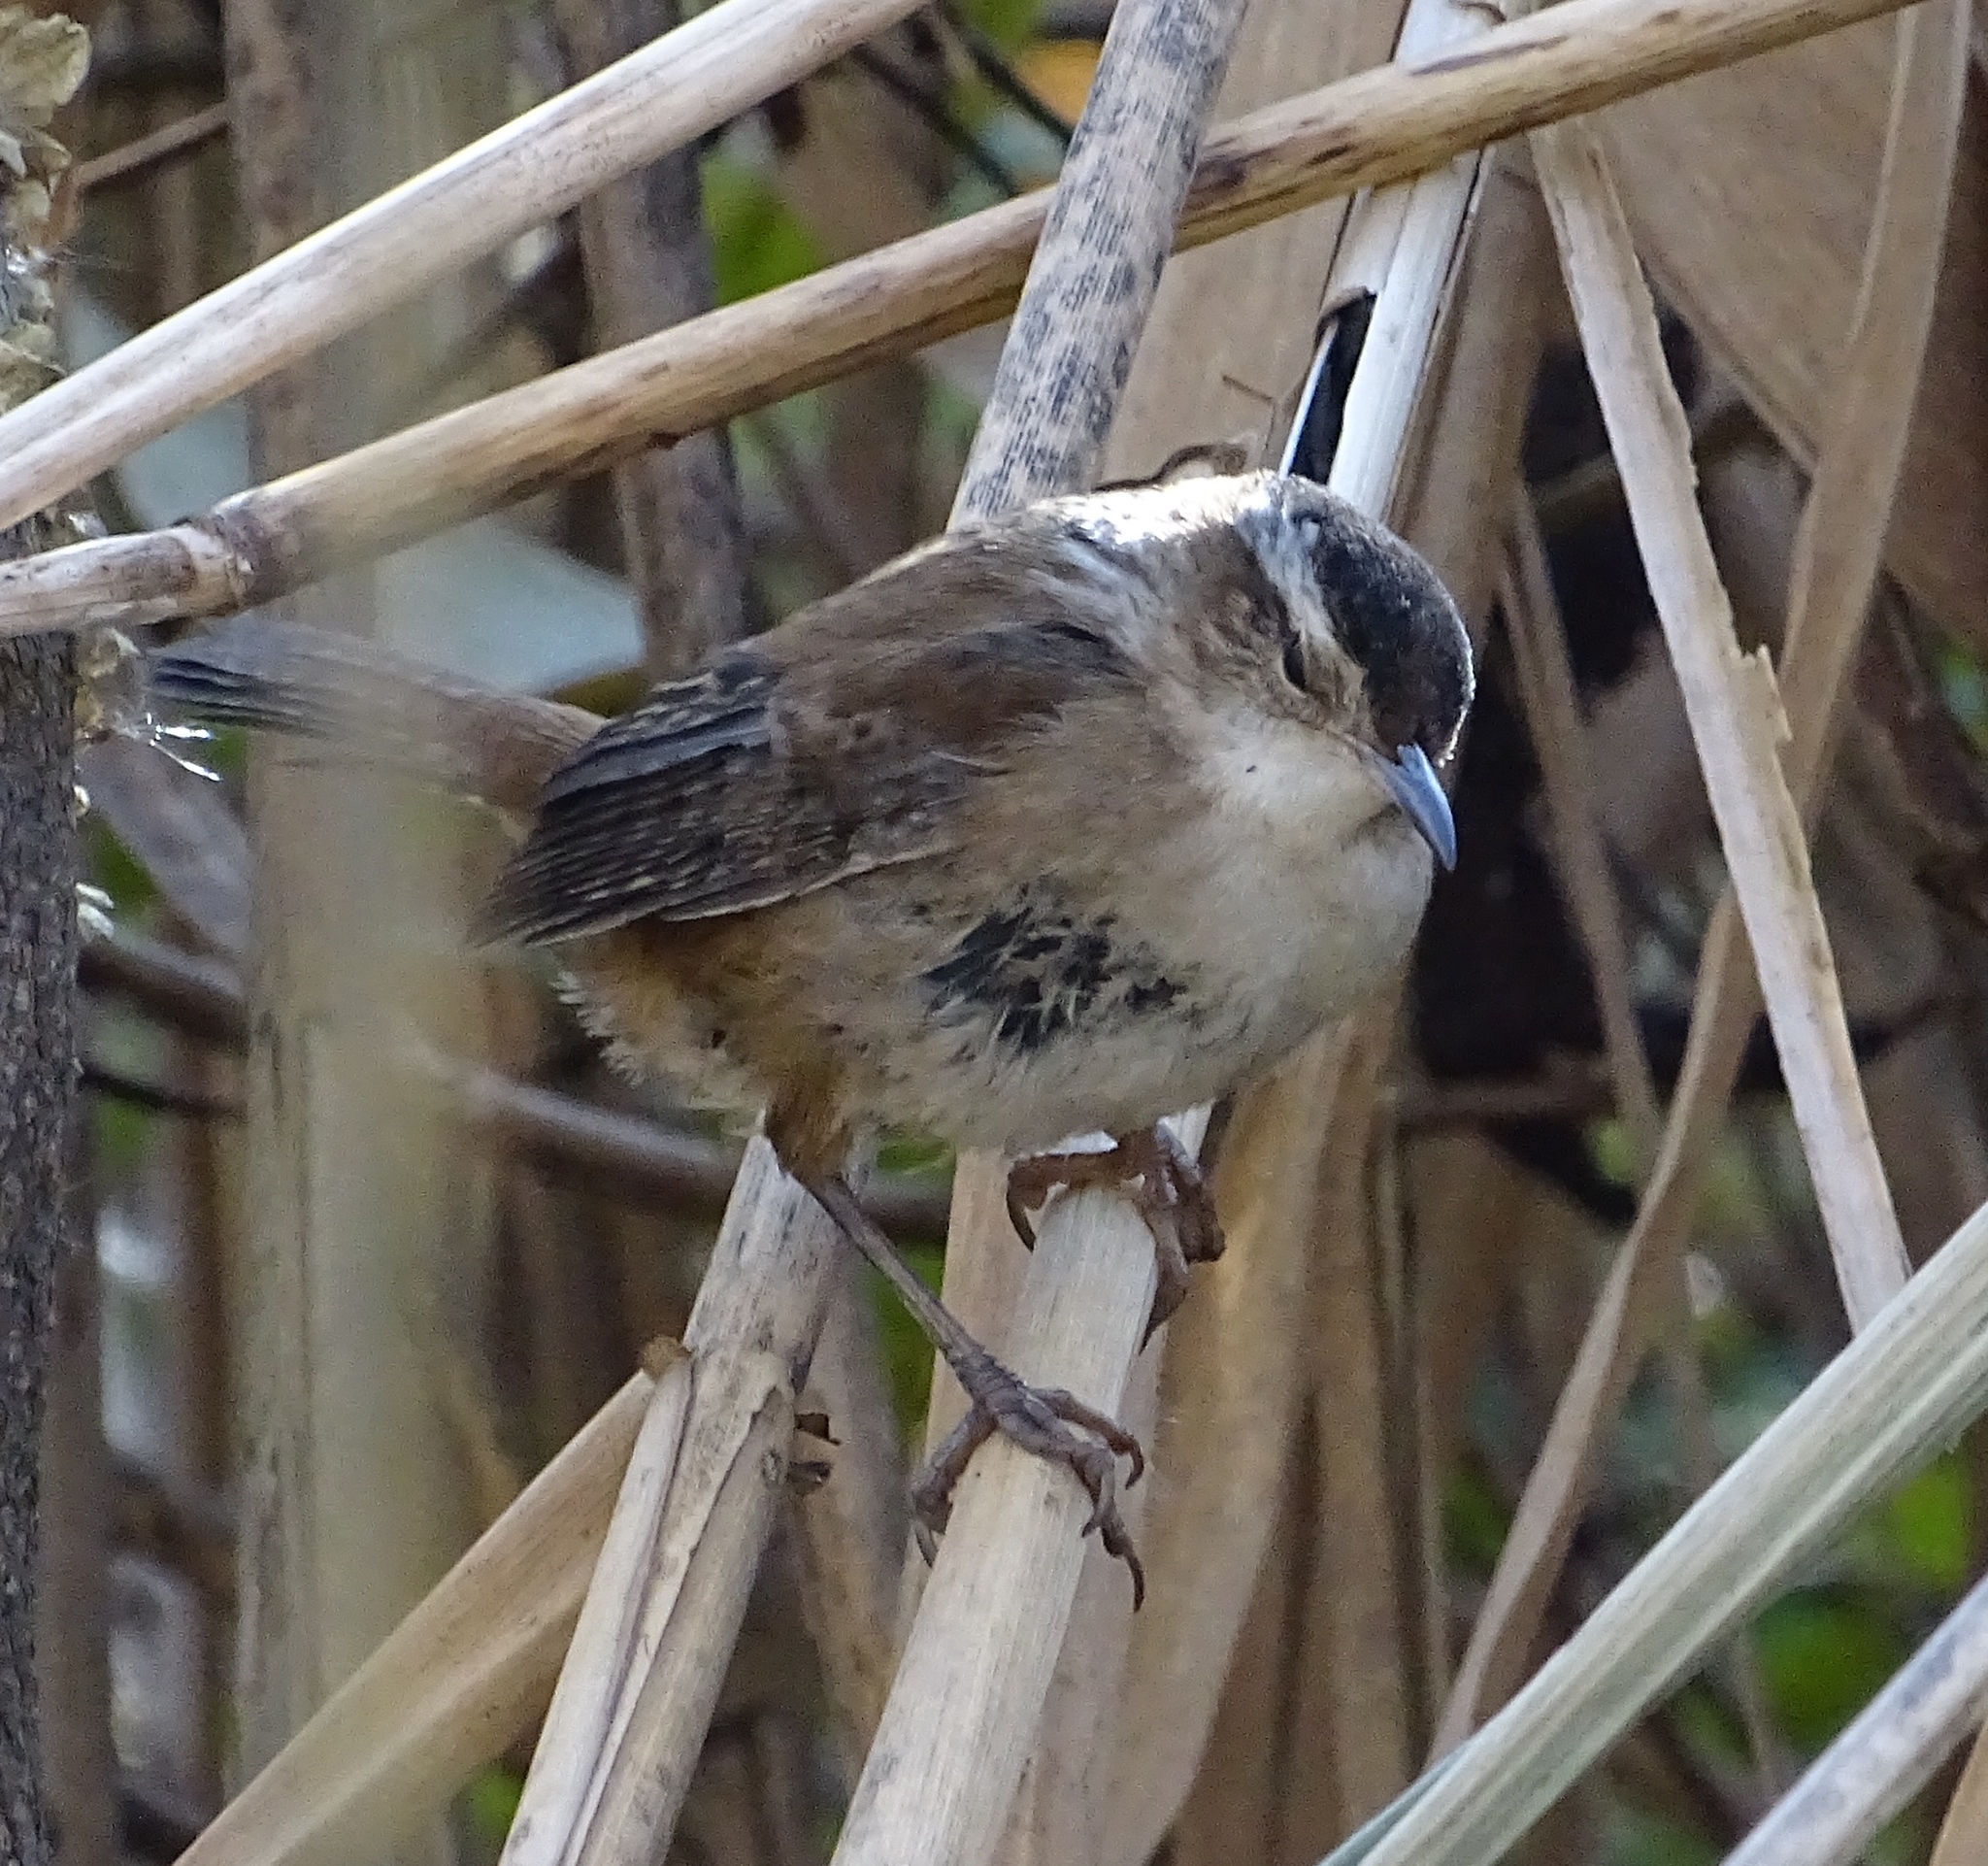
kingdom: Animalia
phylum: Chordata
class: Aves
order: Passeriformes
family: Troglodytidae
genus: Cistothorus
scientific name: Cistothorus palustris
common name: Marsh wren
